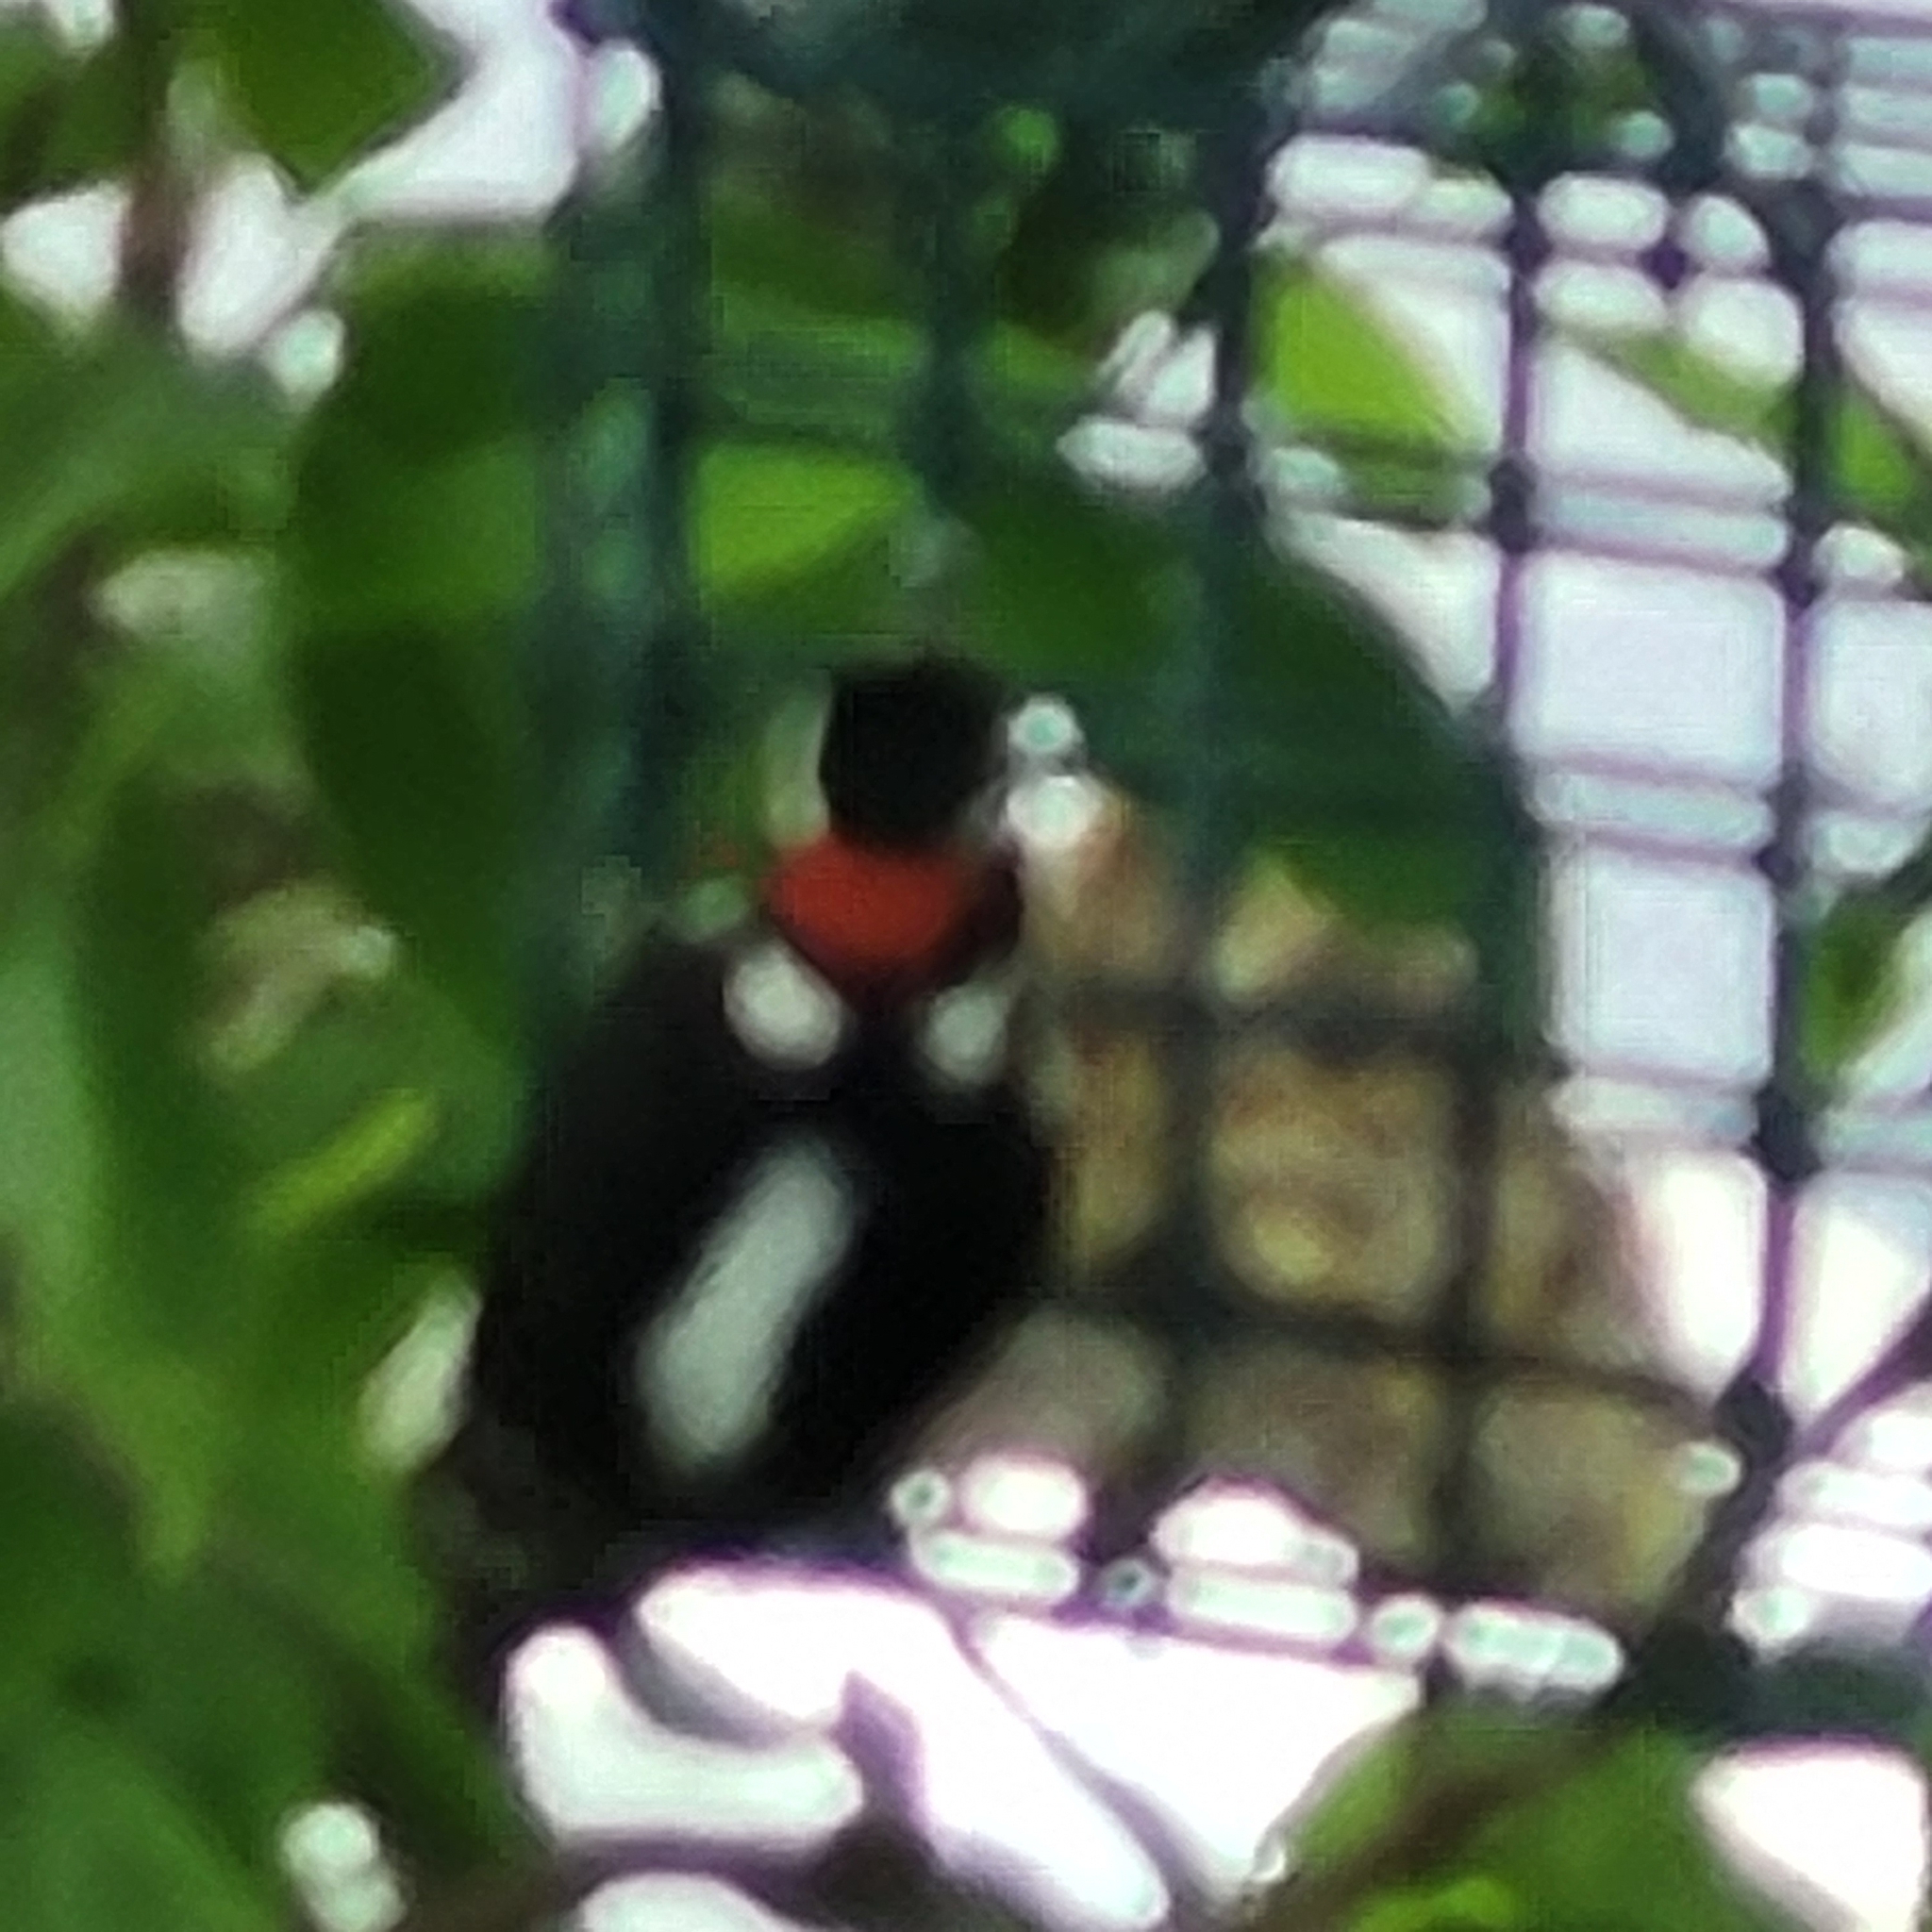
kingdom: Animalia
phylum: Chordata
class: Aves
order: Piciformes
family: Picidae
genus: Dryobates
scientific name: Dryobates pubescens
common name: Downy woodpecker
